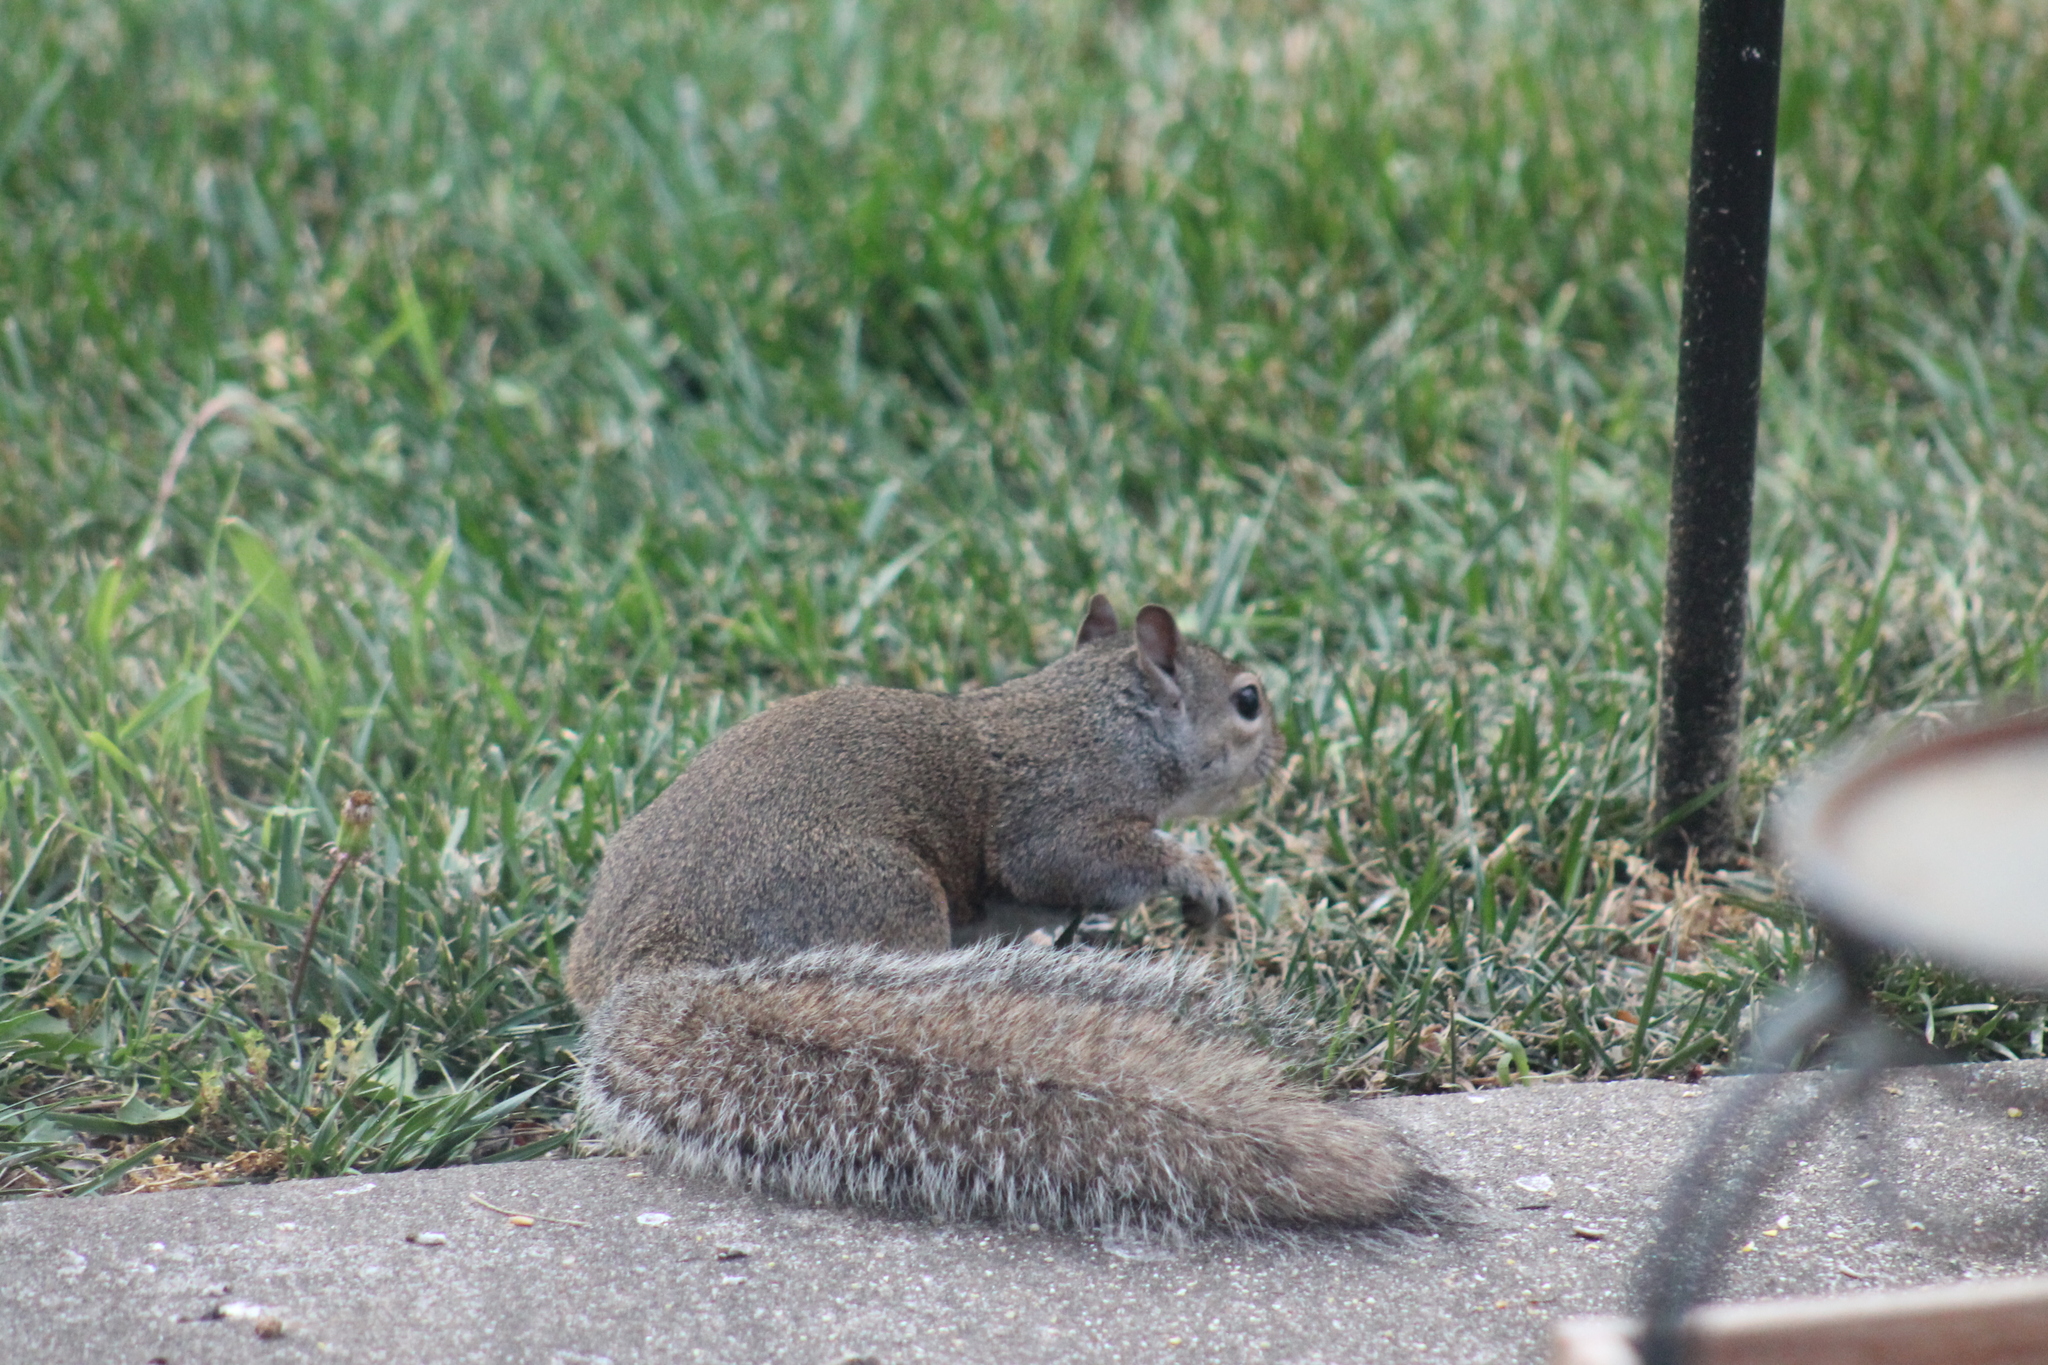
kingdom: Animalia
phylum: Chordata
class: Mammalia
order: Rodentia
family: Sciuridae
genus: Sciurus
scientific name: Sciurus carolinensis
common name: Eastern gray squirrel
